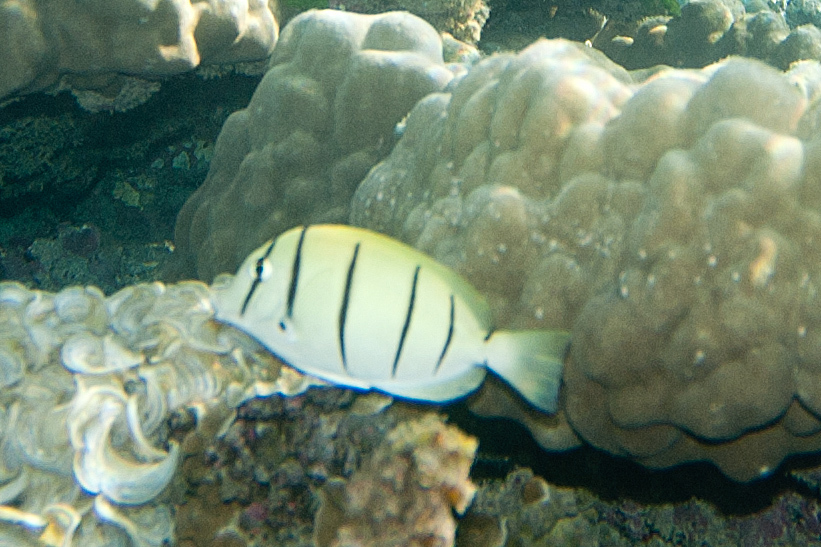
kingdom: Animalia
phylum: Chordata
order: Perciformes
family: Acanthuridae
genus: Acanthurus
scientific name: Acanthurus triostegus
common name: Convict surgeonfish
